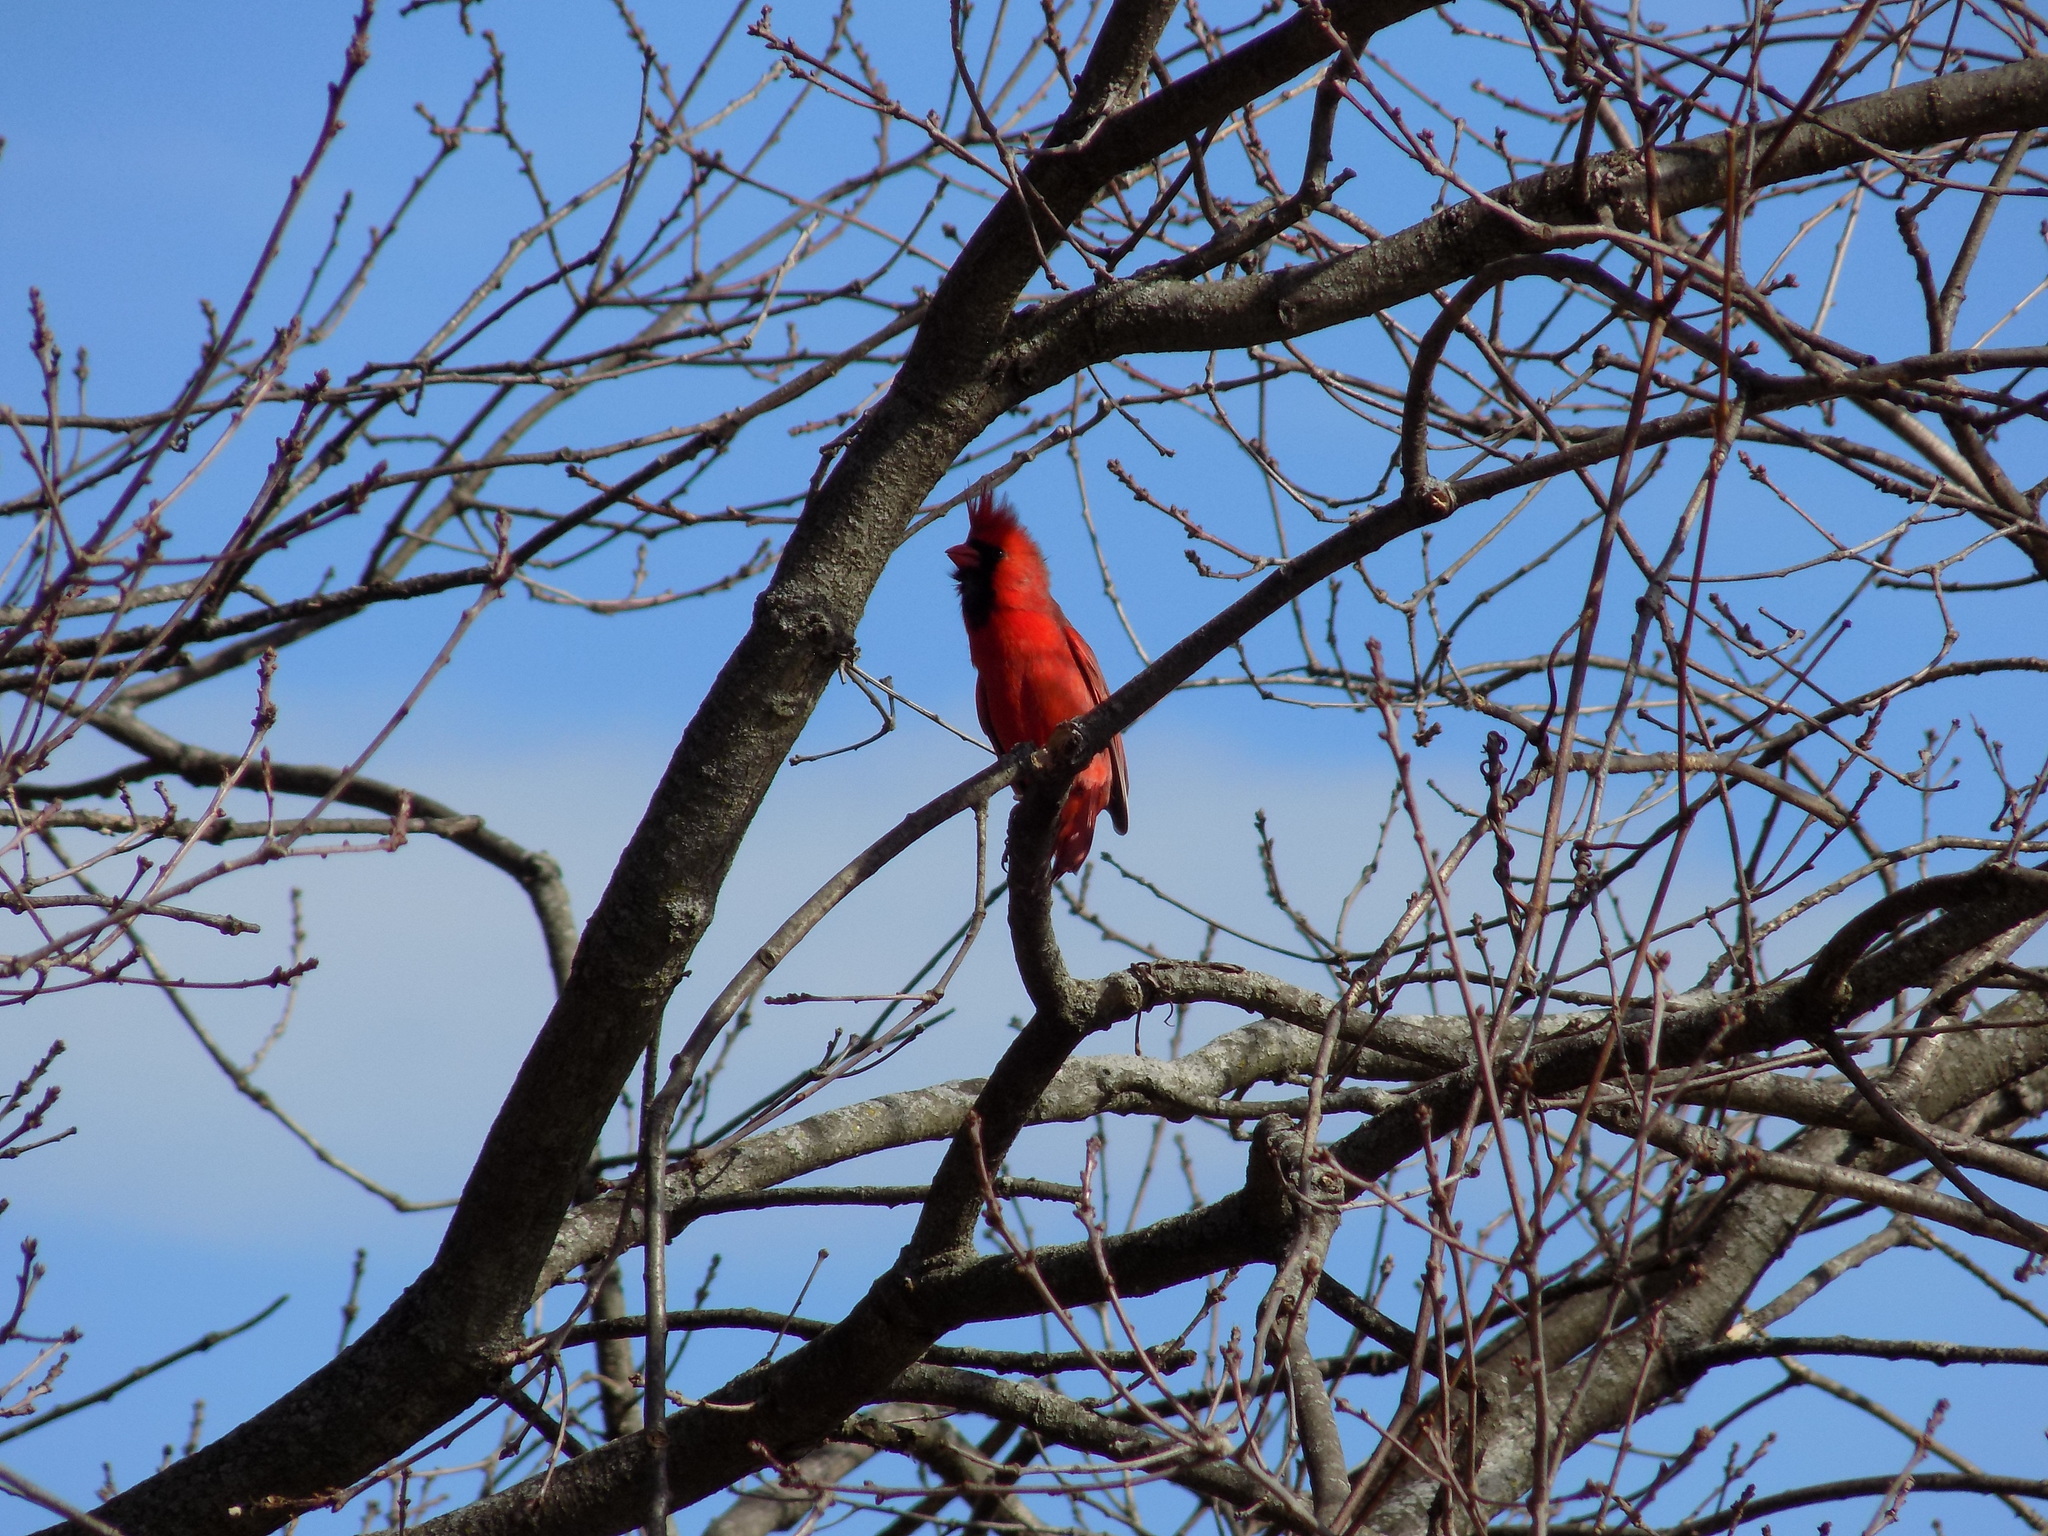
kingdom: Animalia
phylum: Chordata
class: Aves
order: Passeriformes
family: Cardinalidae
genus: Cardinalis
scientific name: Cardinalis cardinalis
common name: Northern cardinal
